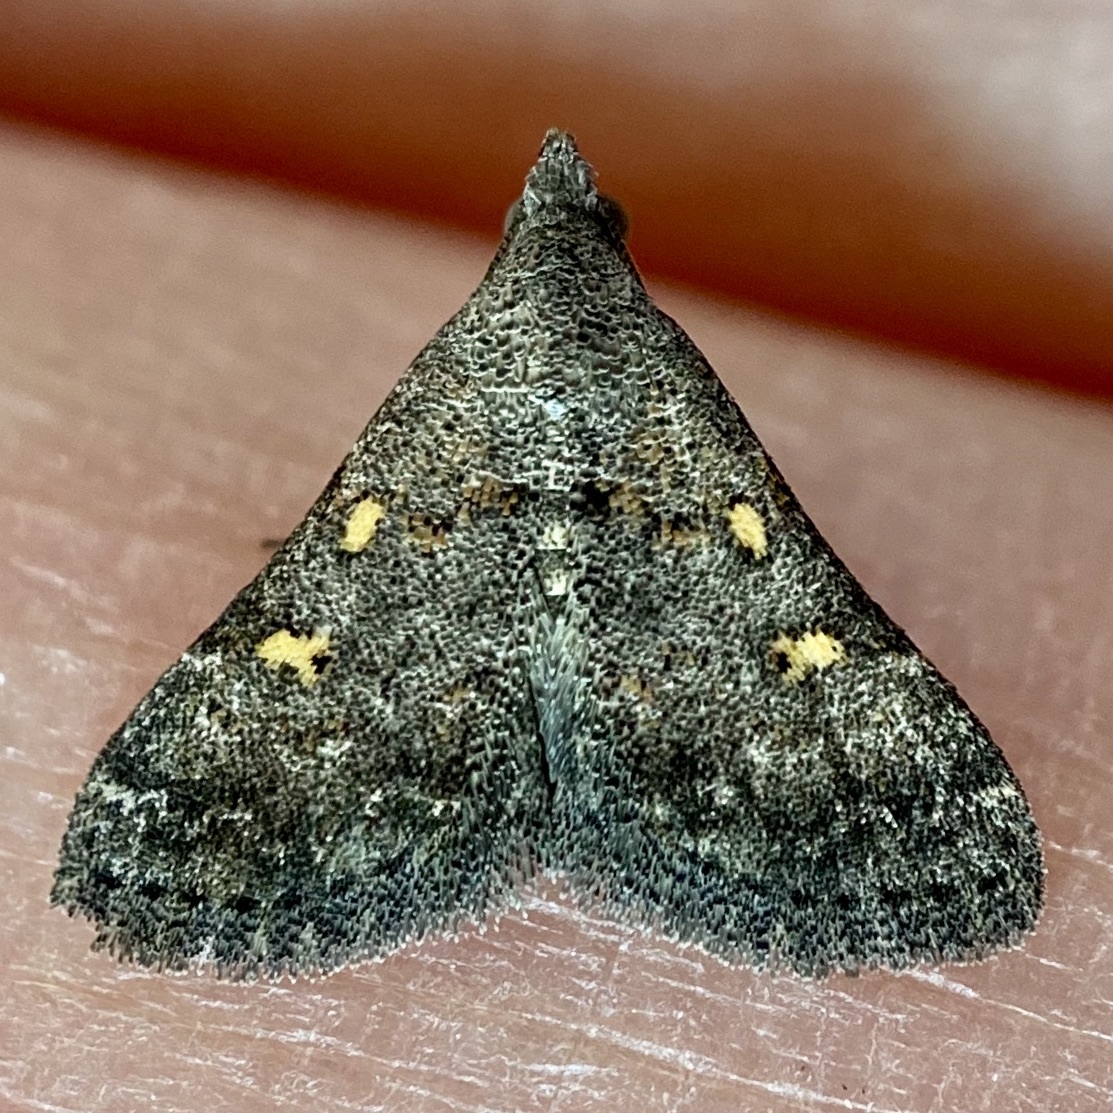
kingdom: Animalia
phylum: Arthropoda
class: Insecta
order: Lepidoptera
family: Erebidae
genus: Bleptina
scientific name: Bleptina minimalis
